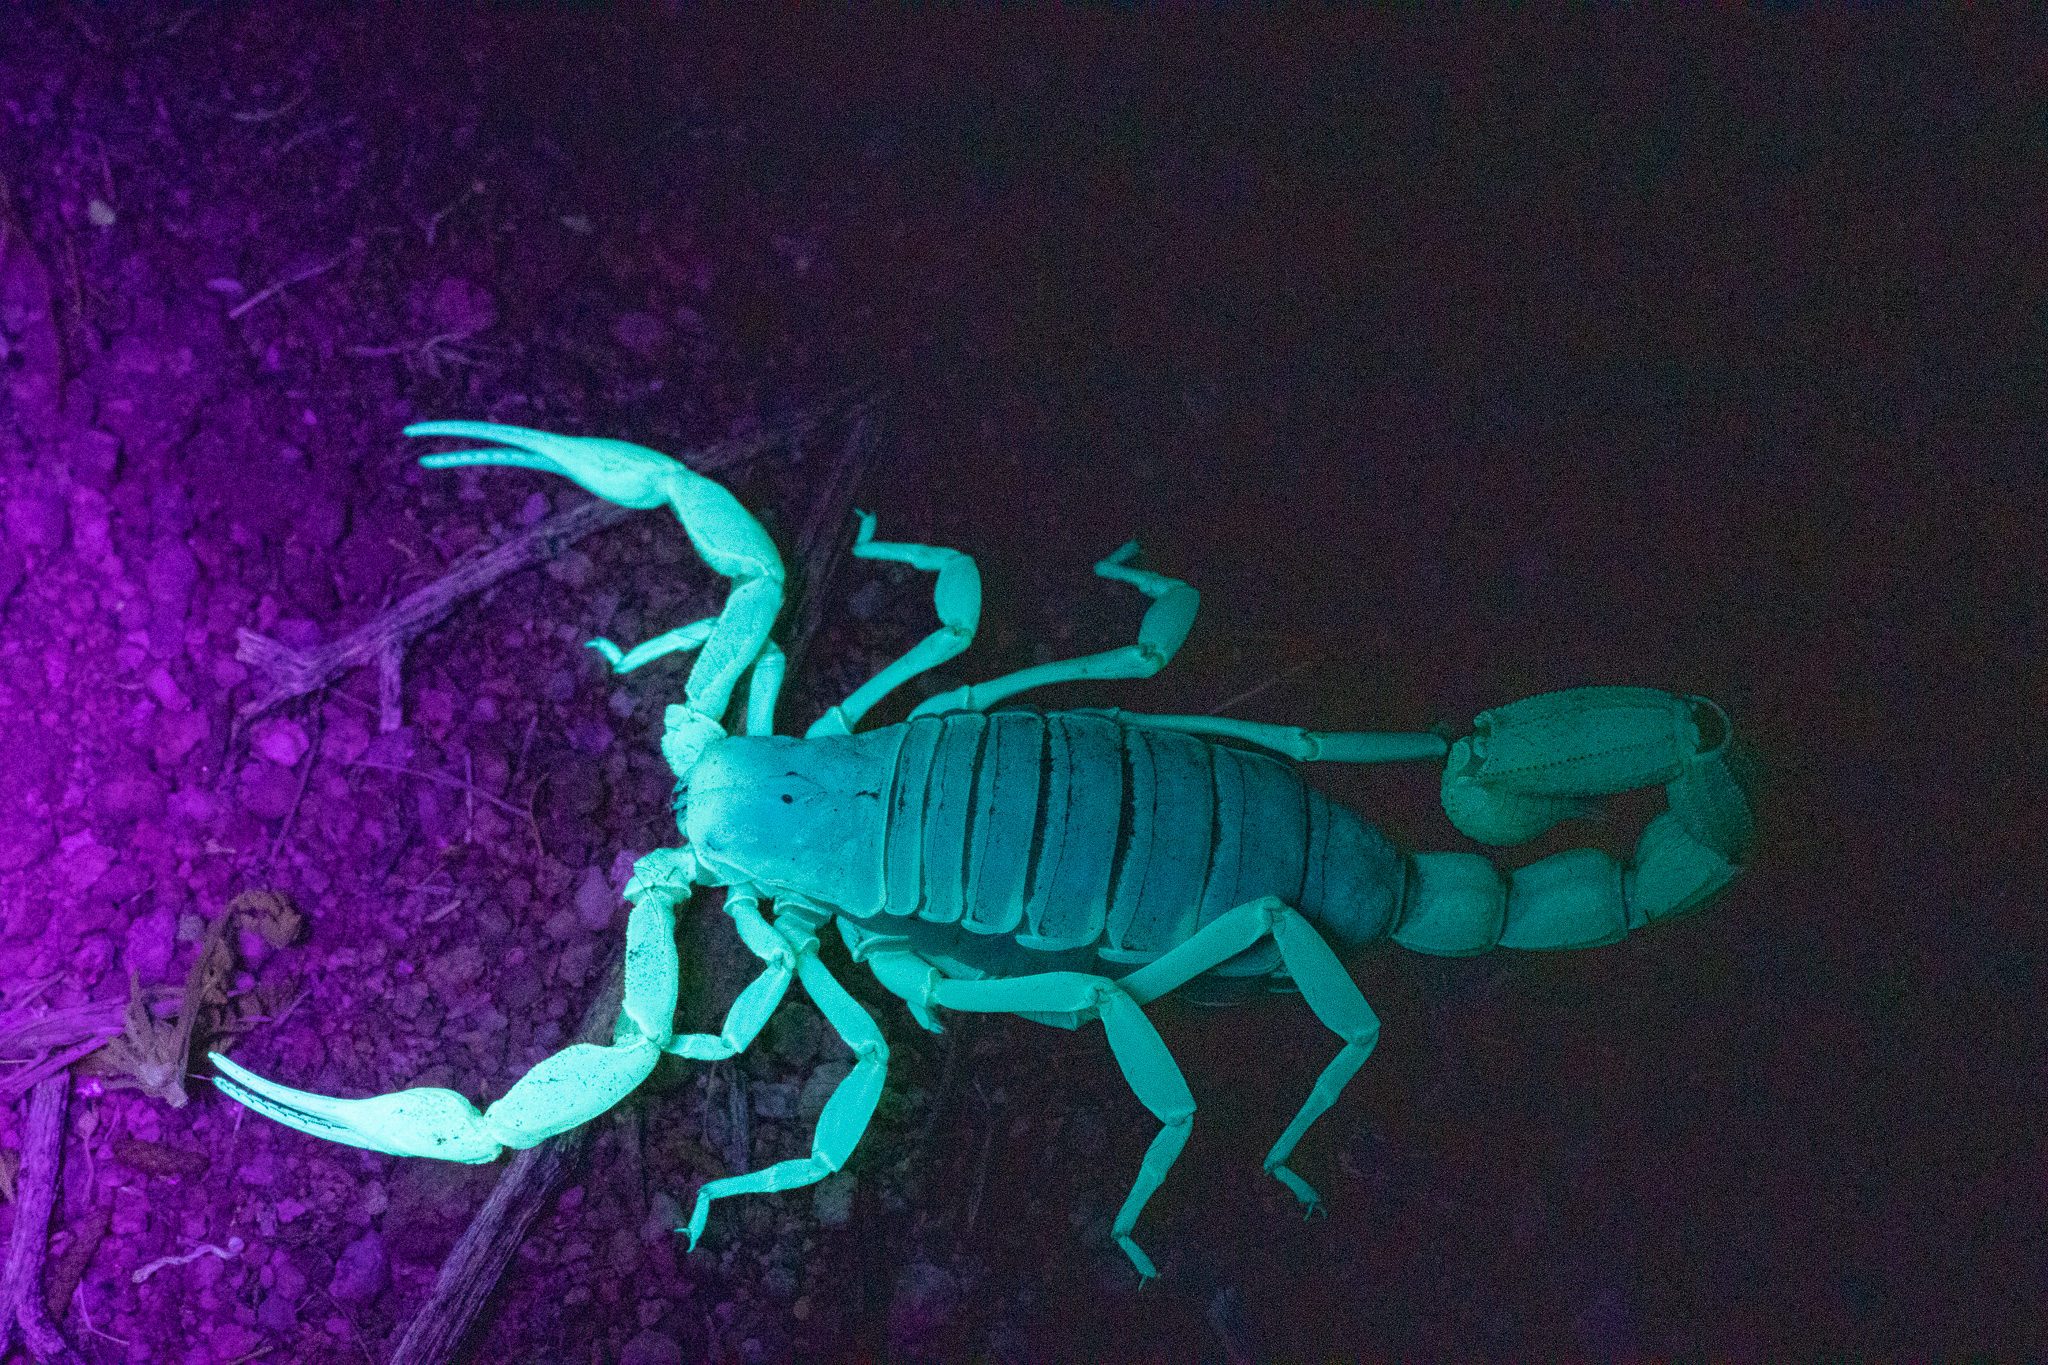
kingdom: Animalia
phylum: Arthropoda
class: Arachnida
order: Scorpiones
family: Hadruridae
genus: Hadrurus
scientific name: Hadrurus anzaborrego
